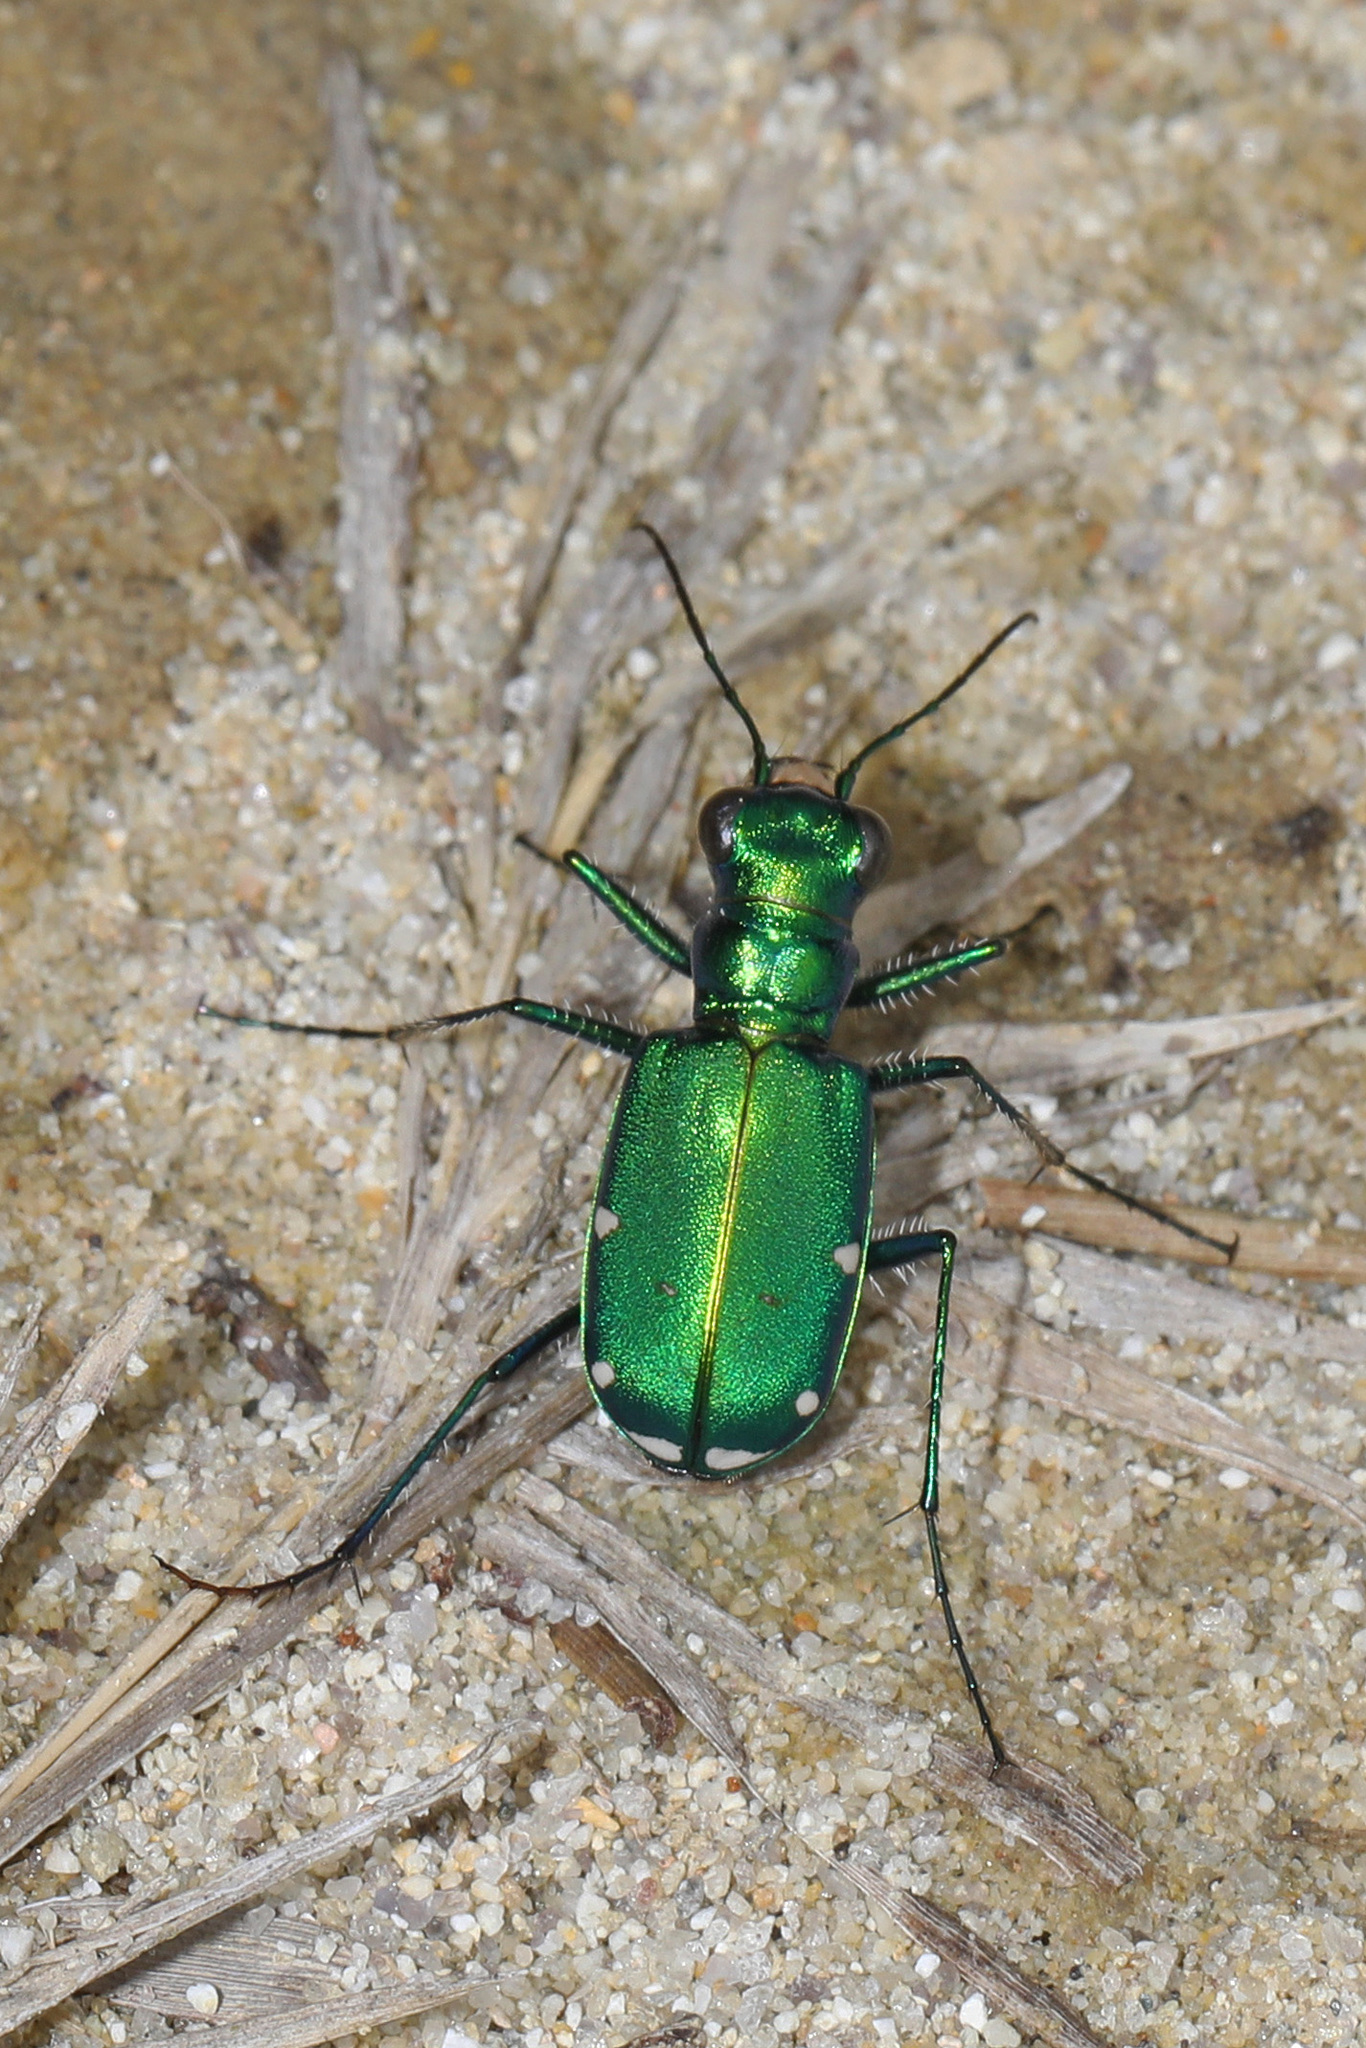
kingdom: Animalia
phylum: Arthropoda
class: Insecta
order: Coleoptera
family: Carabidae
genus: Cicindela
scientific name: Cicindela sexguttata
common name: Six-spotted tiger beetle
